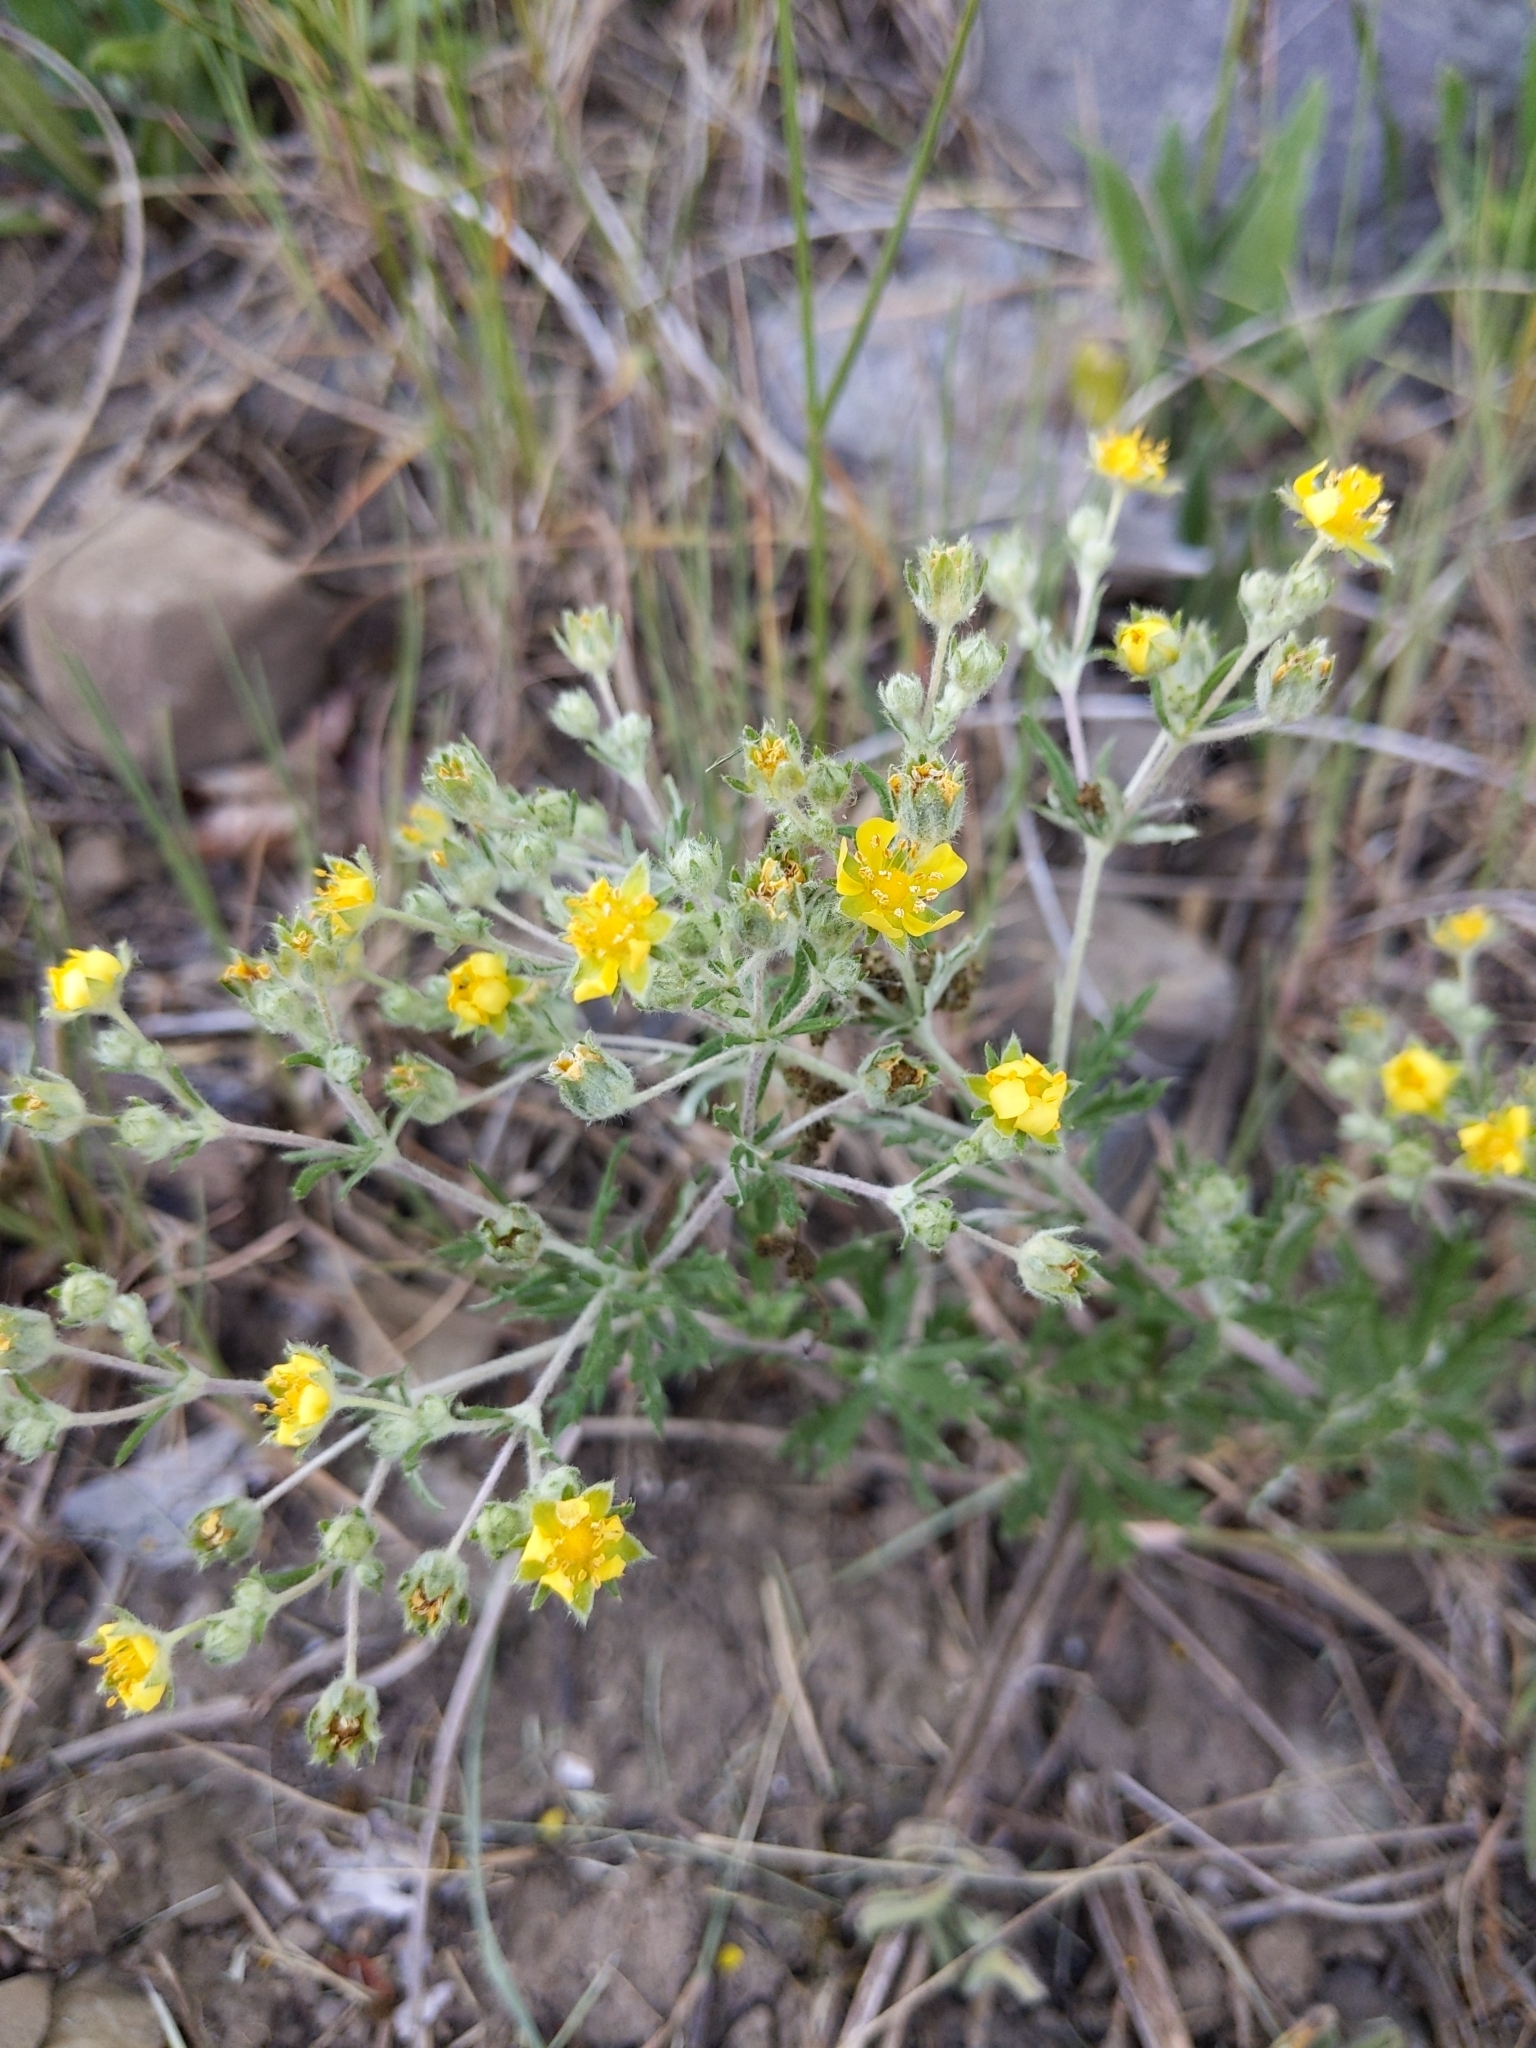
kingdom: Plantae
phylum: Tracheophyta
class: Magnoliopsida
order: Rosales
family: Rosaceae
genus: Potentilla
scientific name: Potentilla argentea
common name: Hoary cinquefoil
